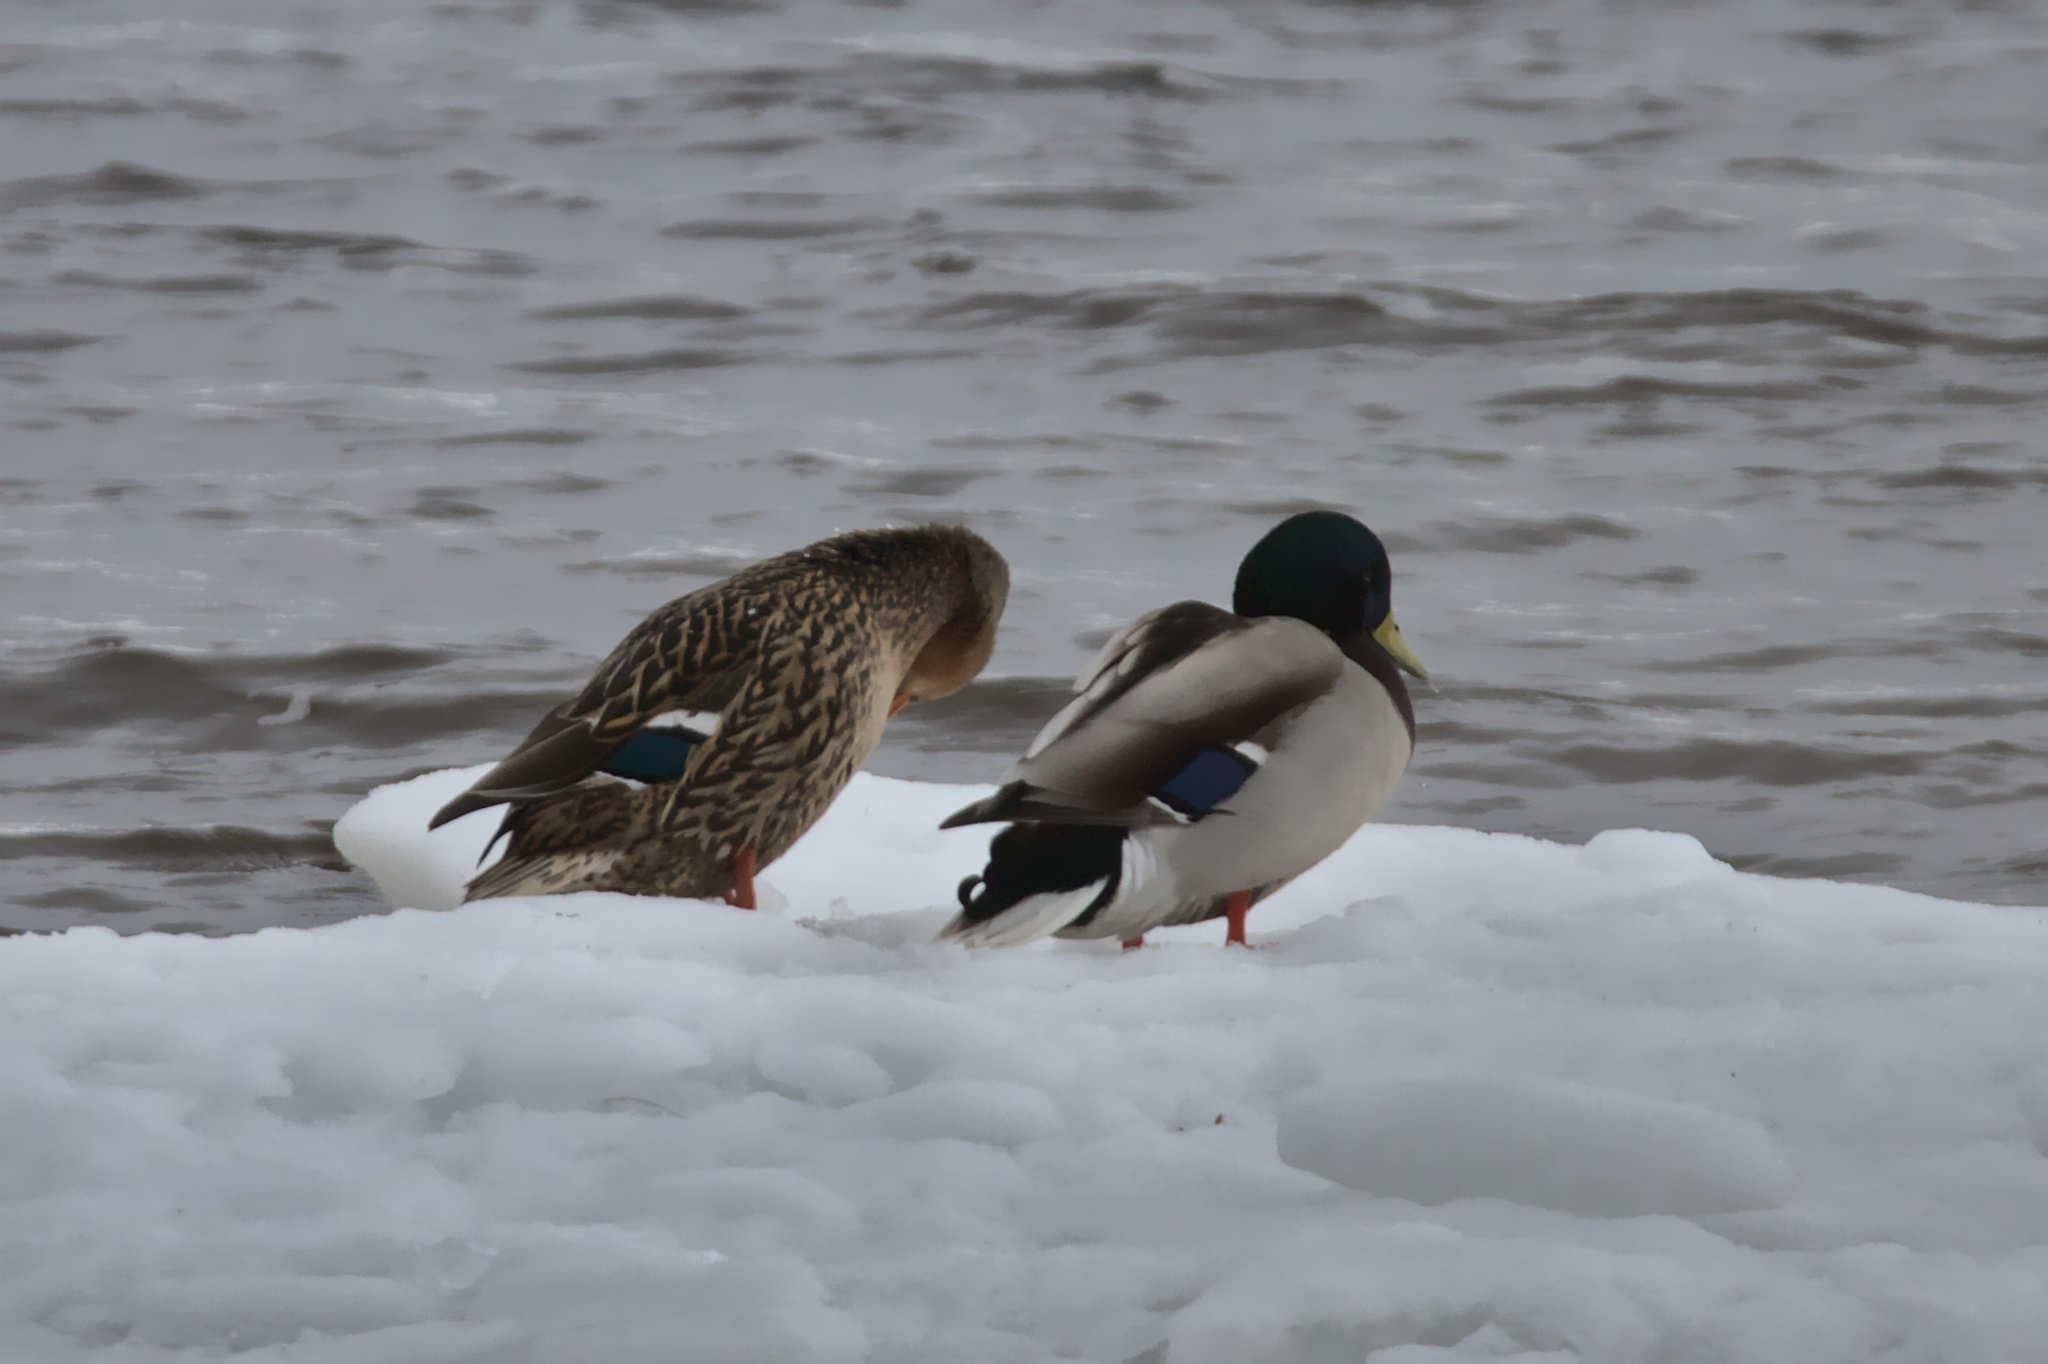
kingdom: Animalia
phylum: Chordata
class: Aves
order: Anseriformes
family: Anatidae
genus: Anas
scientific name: Anas platyrhynchos
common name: Mallard
